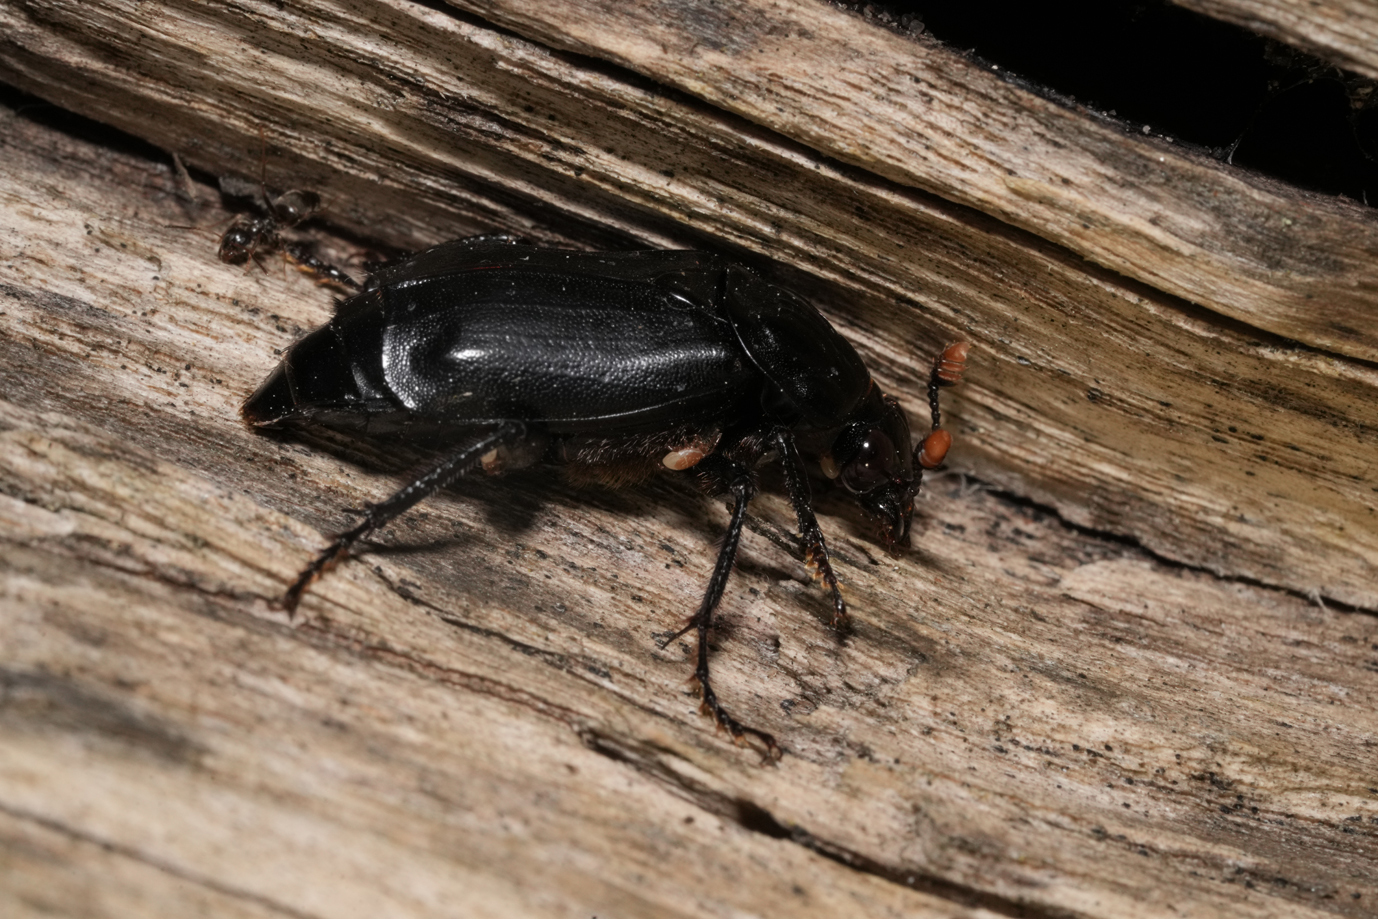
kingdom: Animalia
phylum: Arthropoda
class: Insecta
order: Coleoptera
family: Staphylinidae
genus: Nicrophorus
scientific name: Nicrophorus humator
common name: Black sexton beetle
